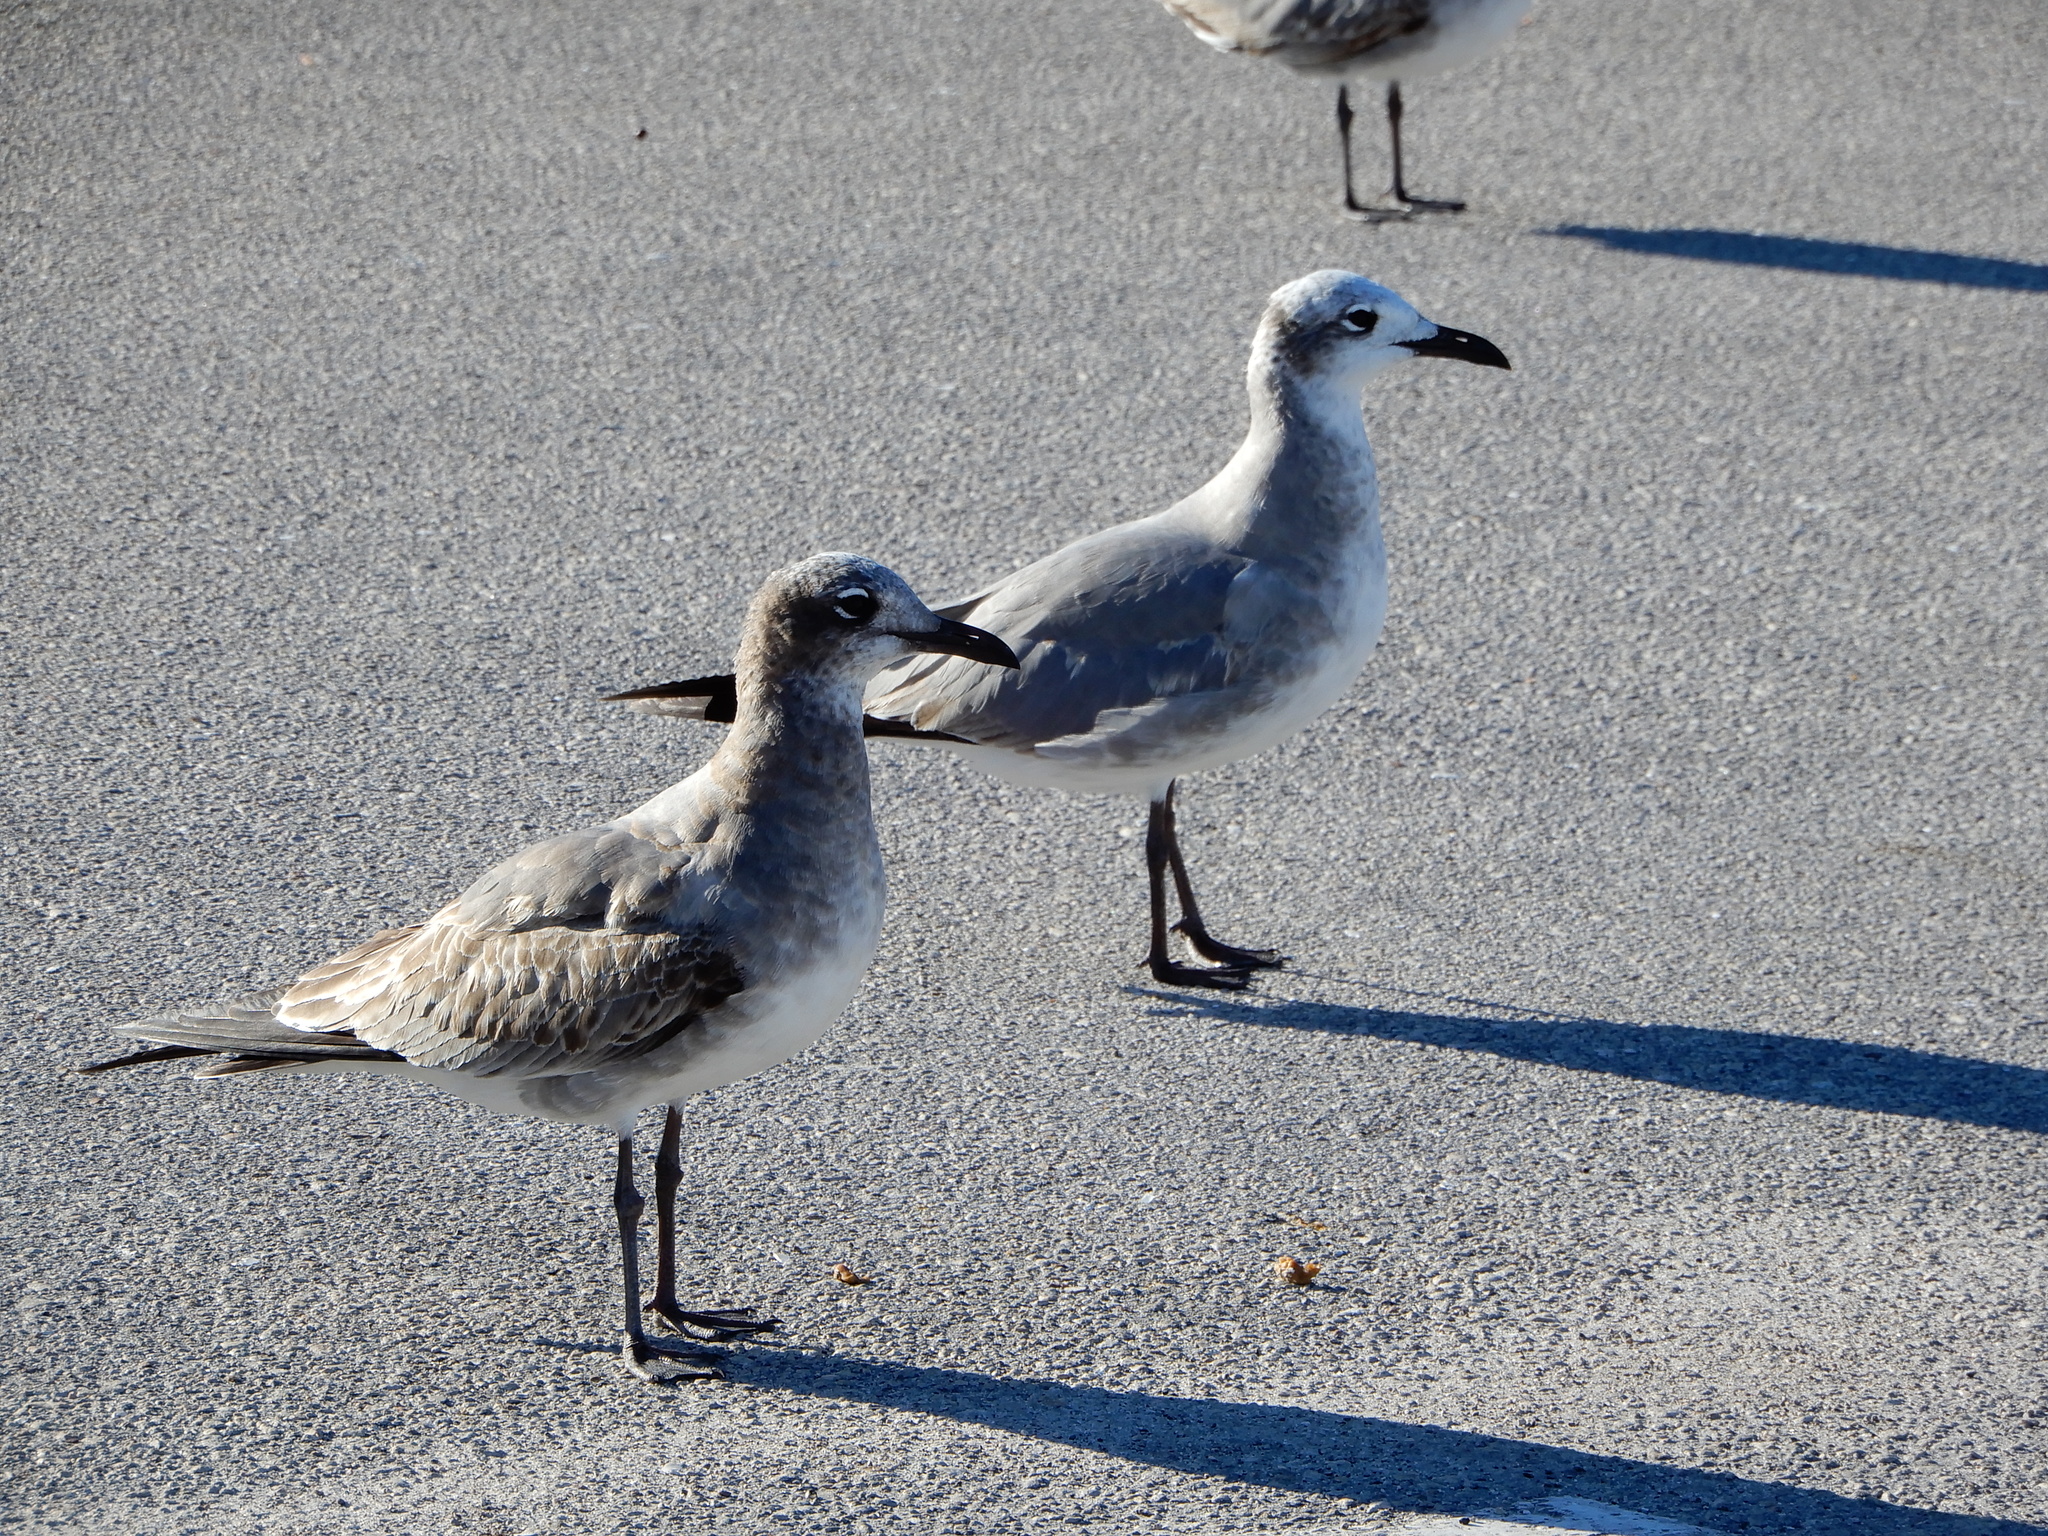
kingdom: Animalia
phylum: Chordata
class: Aves
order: Charadriiformes
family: Laridae
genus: Leucophaeus
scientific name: Leucophaeus atricilla
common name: Laughing gull
